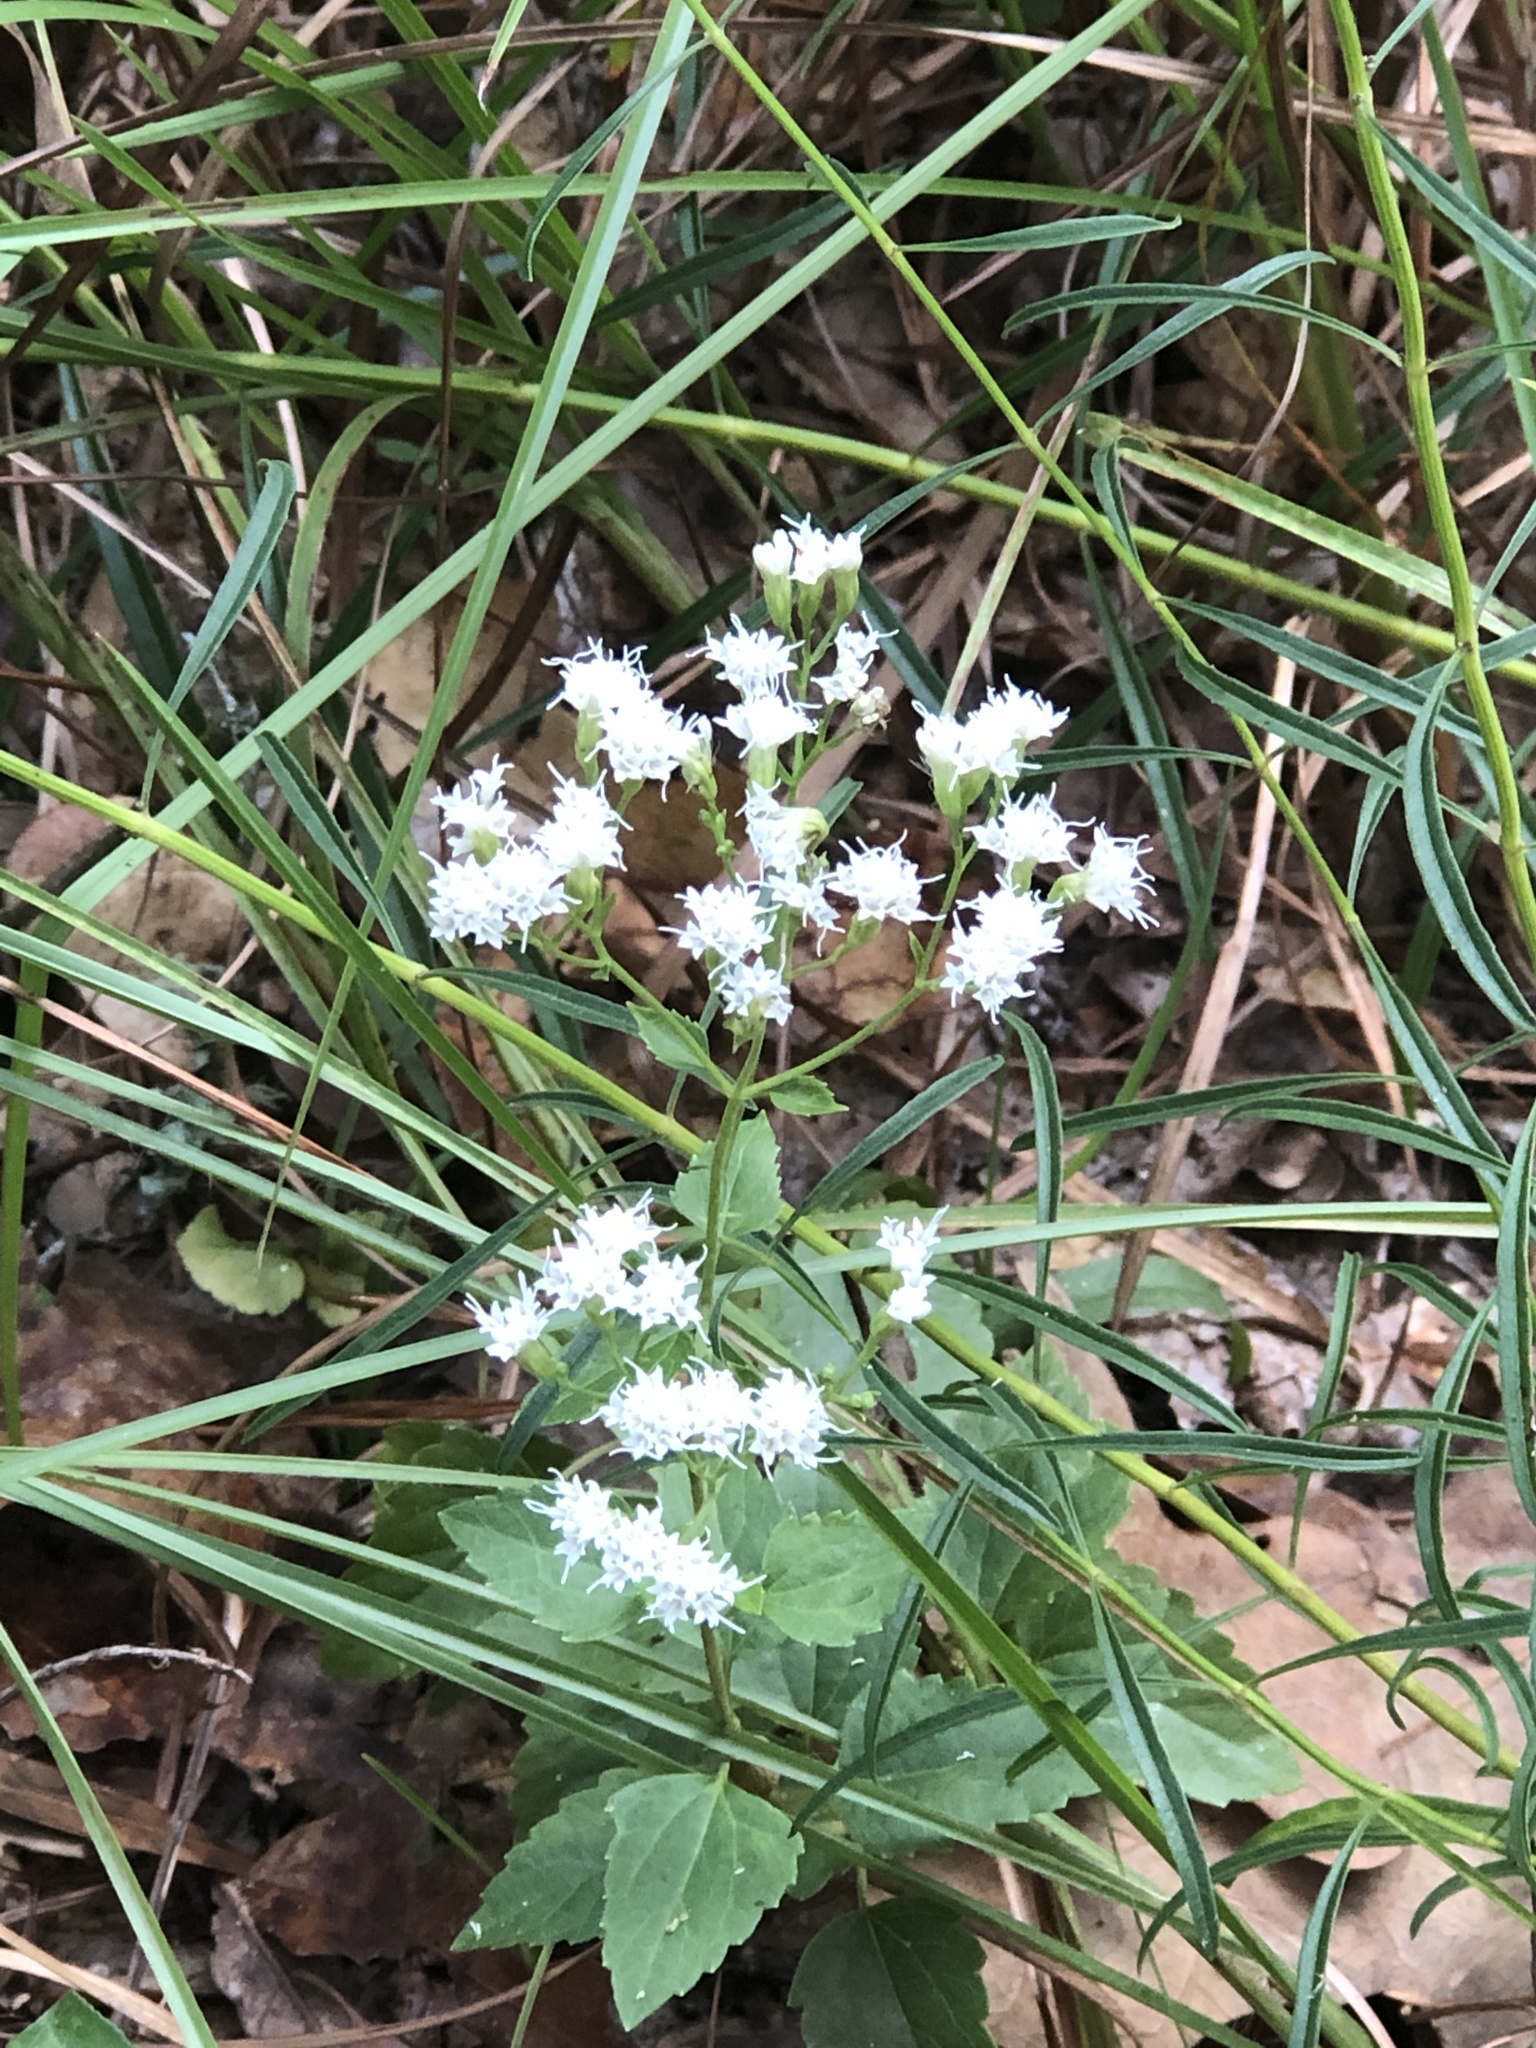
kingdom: Plantae
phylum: Tracheophyta
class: Magnoliopsida
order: Asterales
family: Asteraceae
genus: Ageratina
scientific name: Ageratina jucunda
